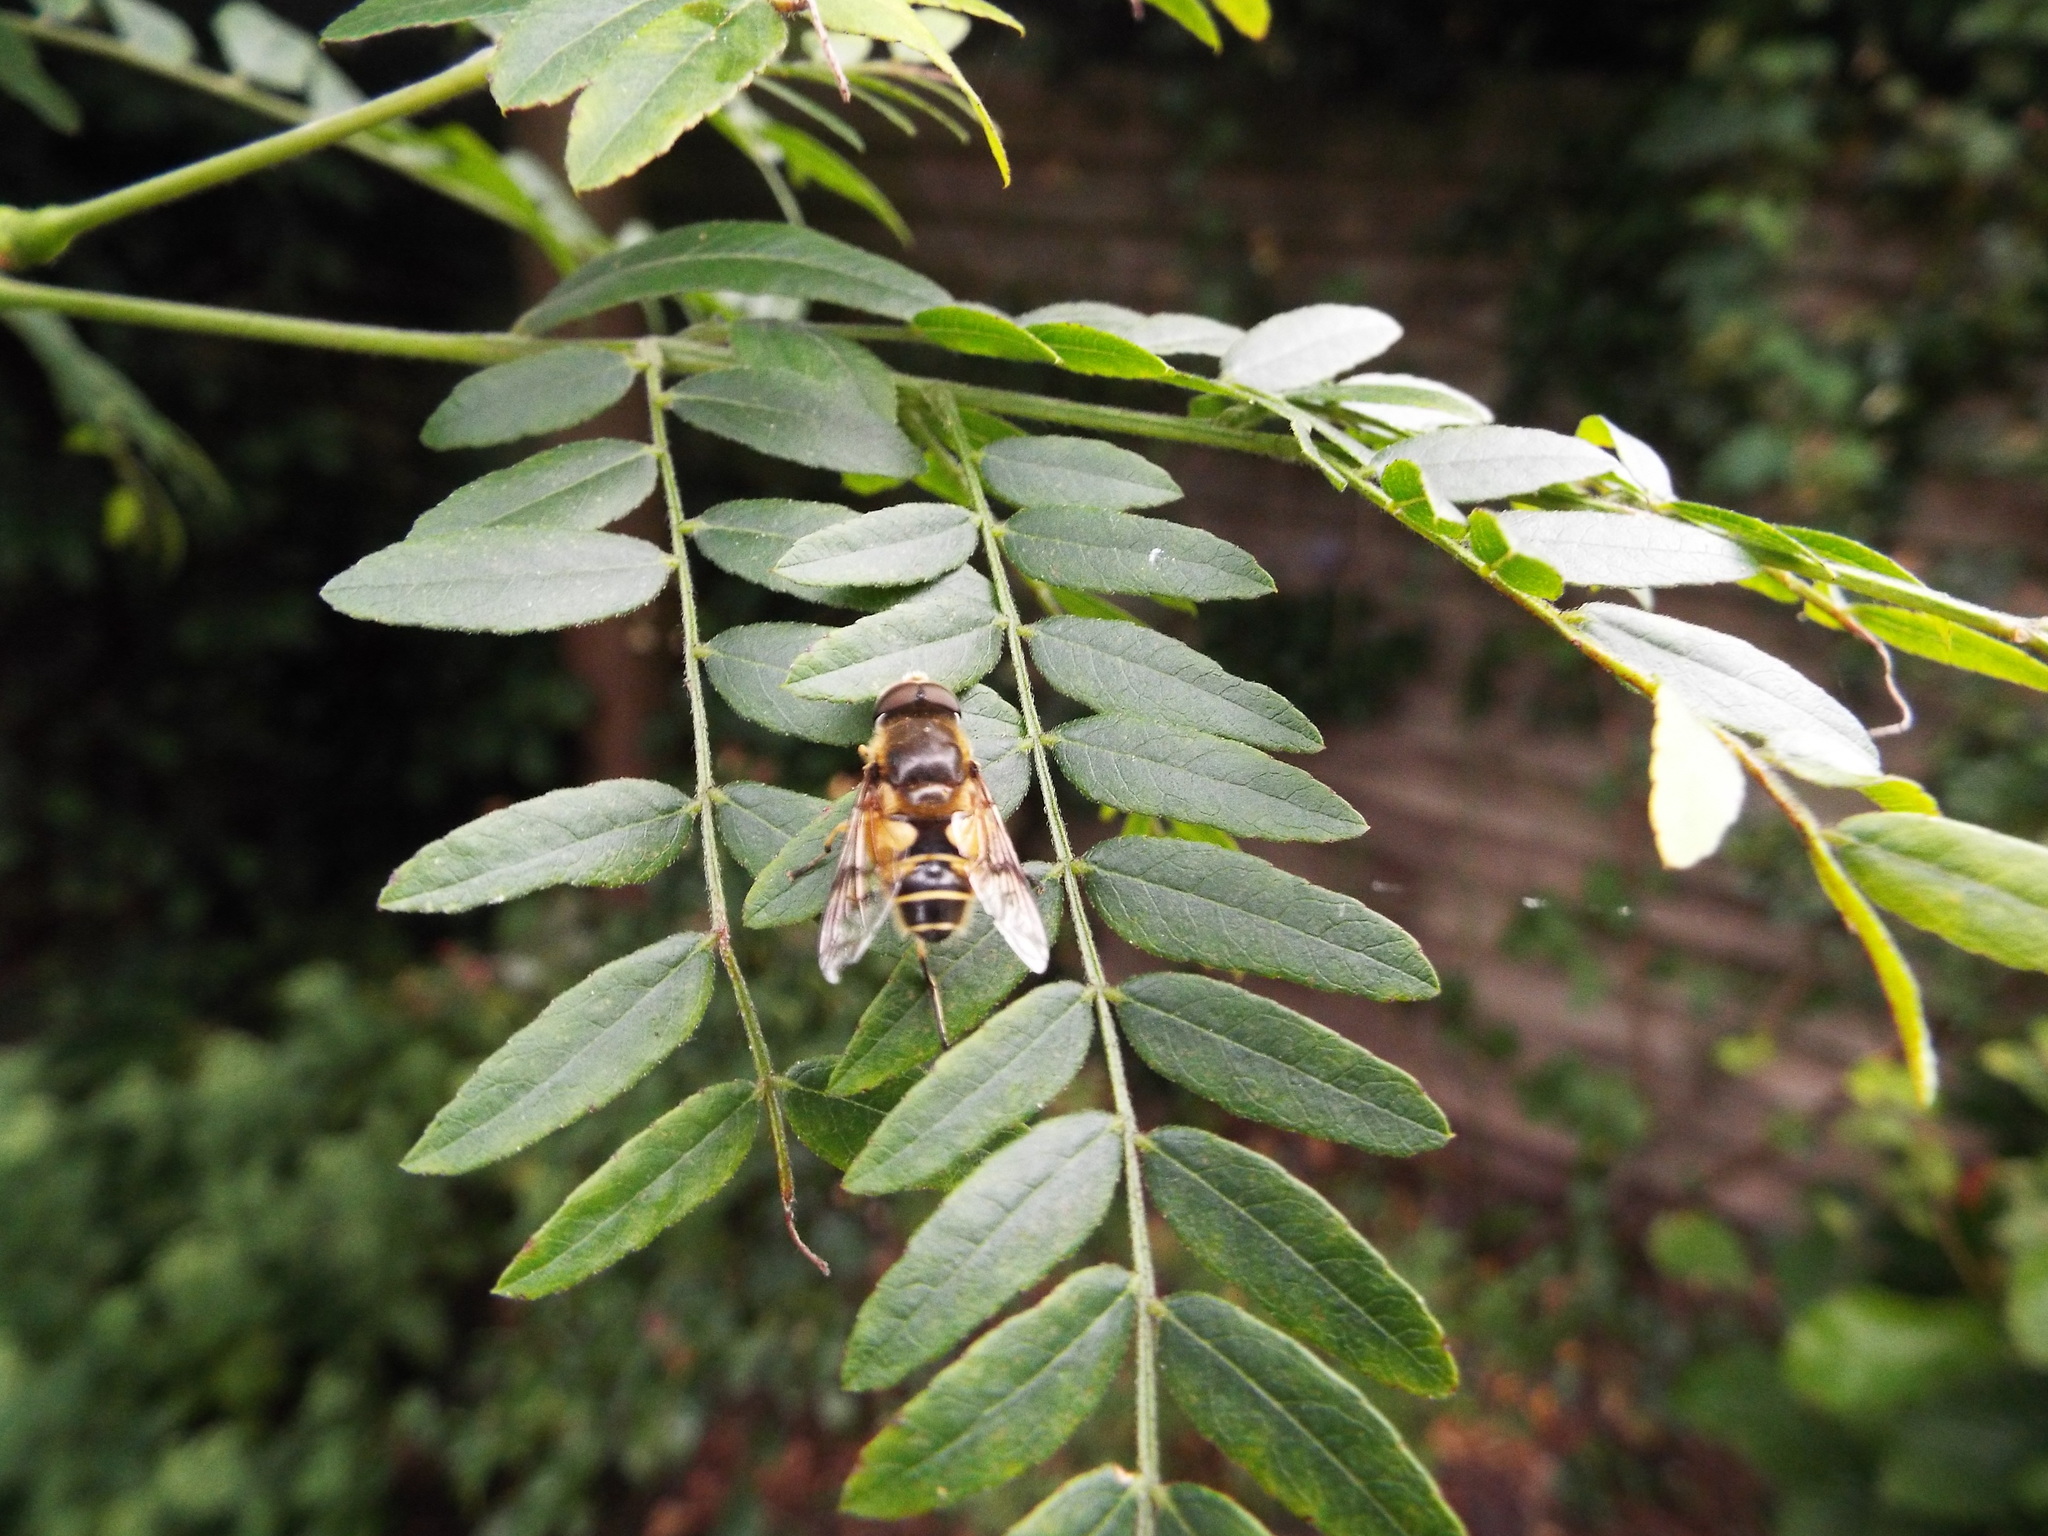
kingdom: Animalia
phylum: Arthropoda
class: Insecta
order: Diptera
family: Syrphidae
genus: Cheilosia
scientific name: Cheilosia morio
